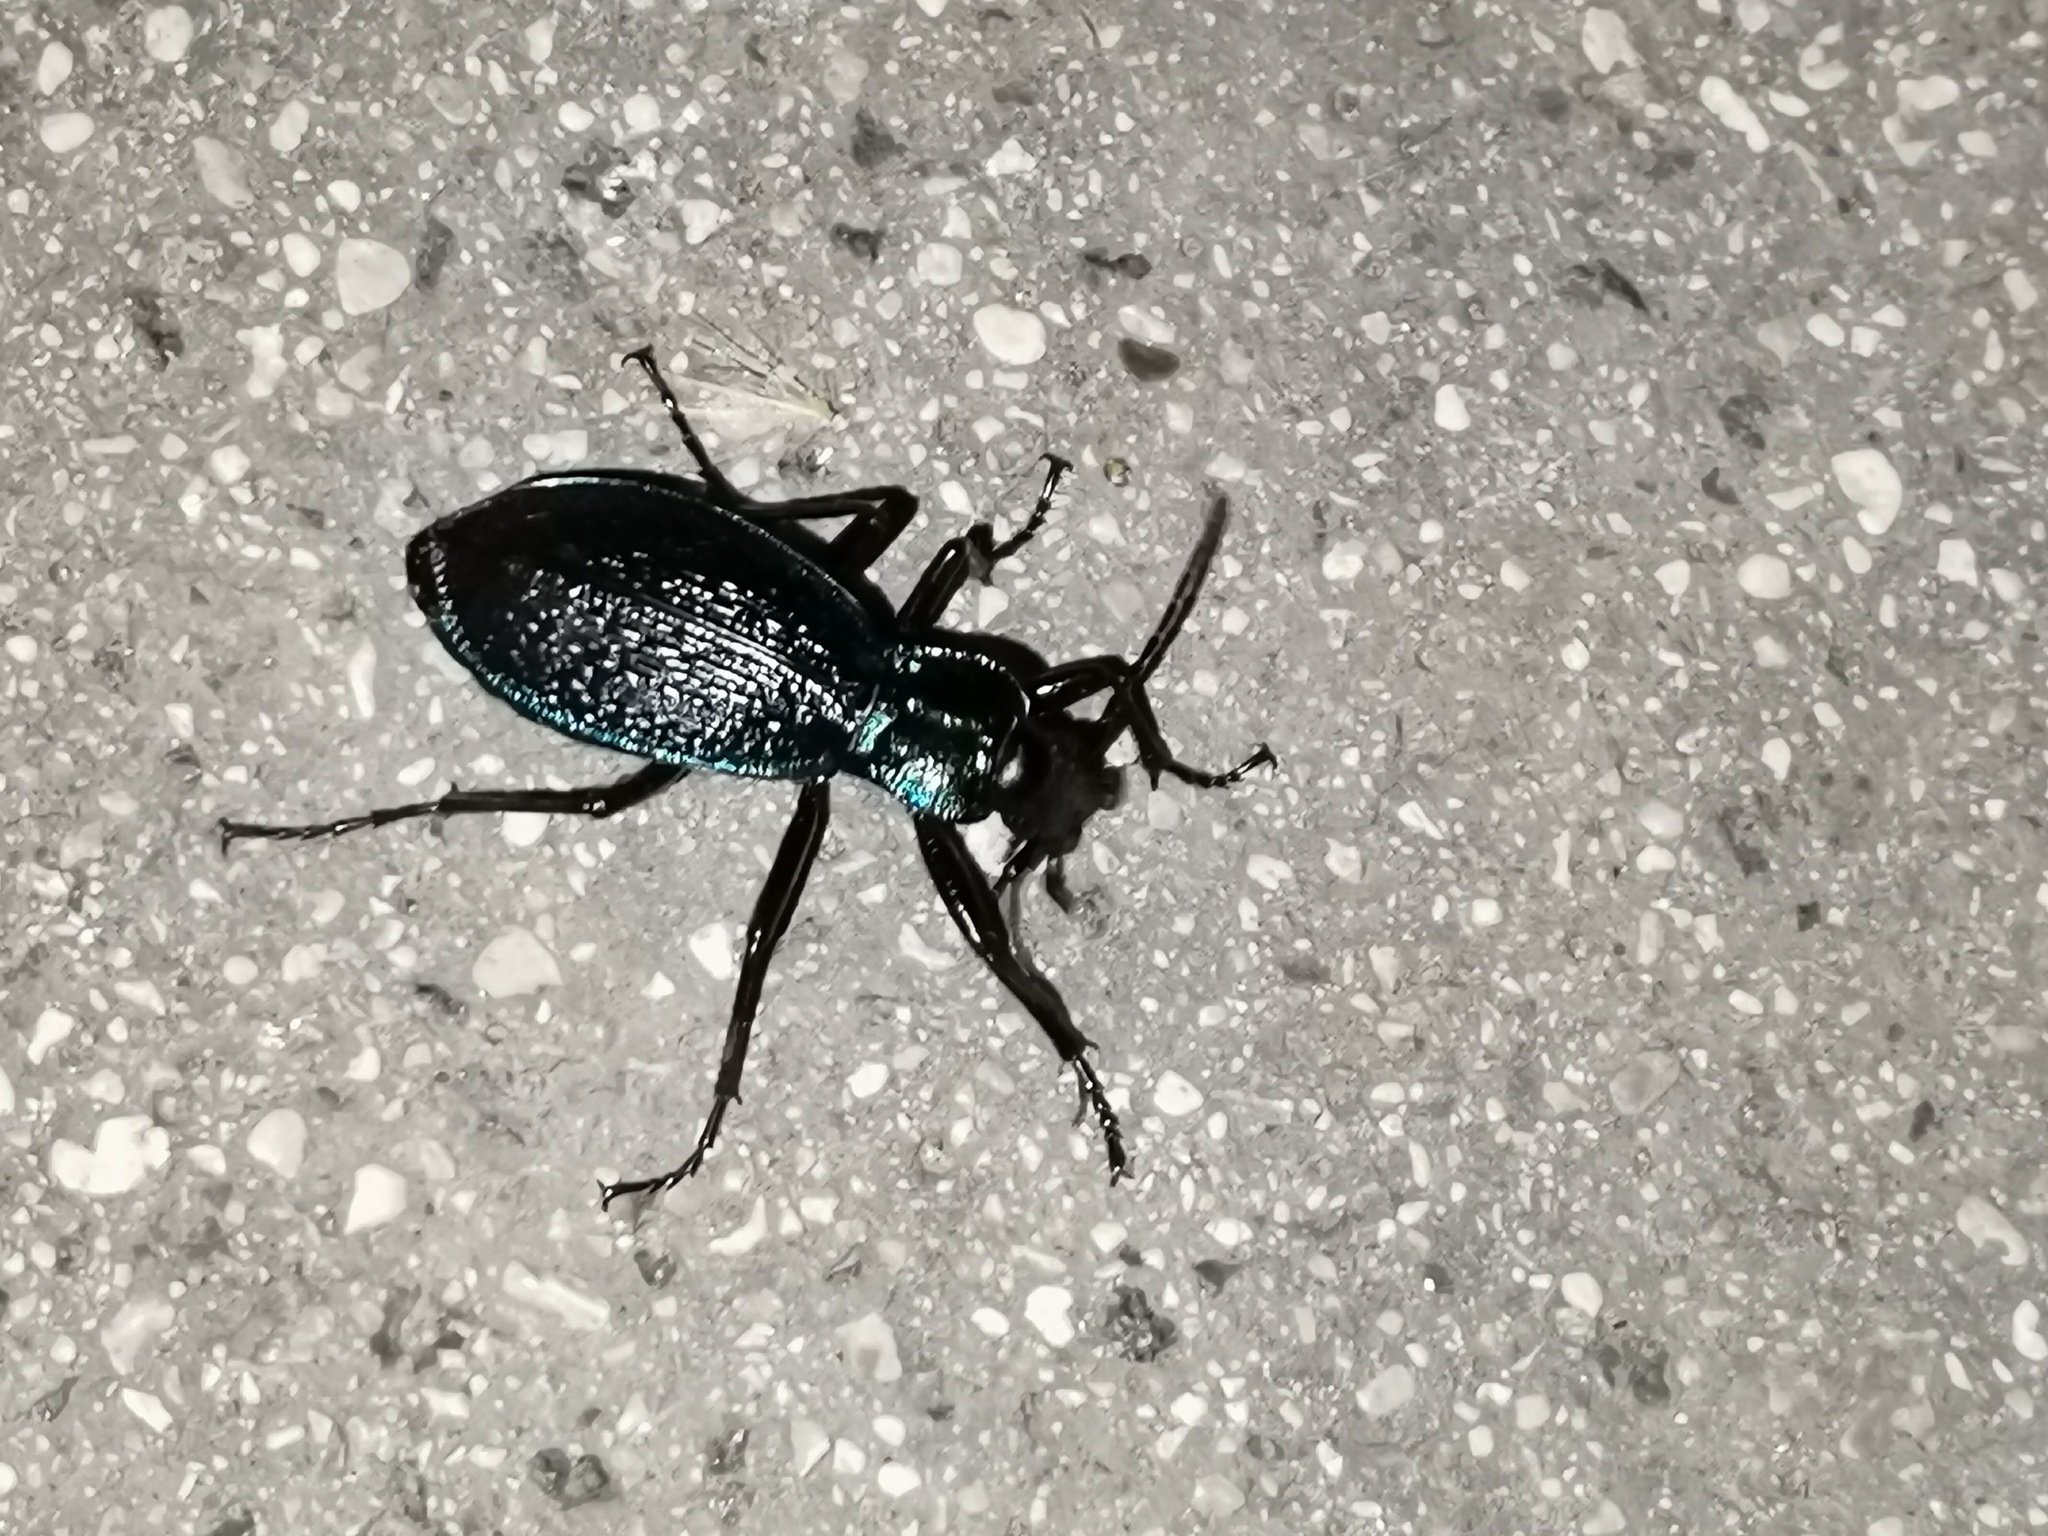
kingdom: Animalia
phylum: Arthropoda
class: Insecta
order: Coleoptera
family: Carabidae
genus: Carabus
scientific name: Carabus intricatus
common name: Blue ground beetle
